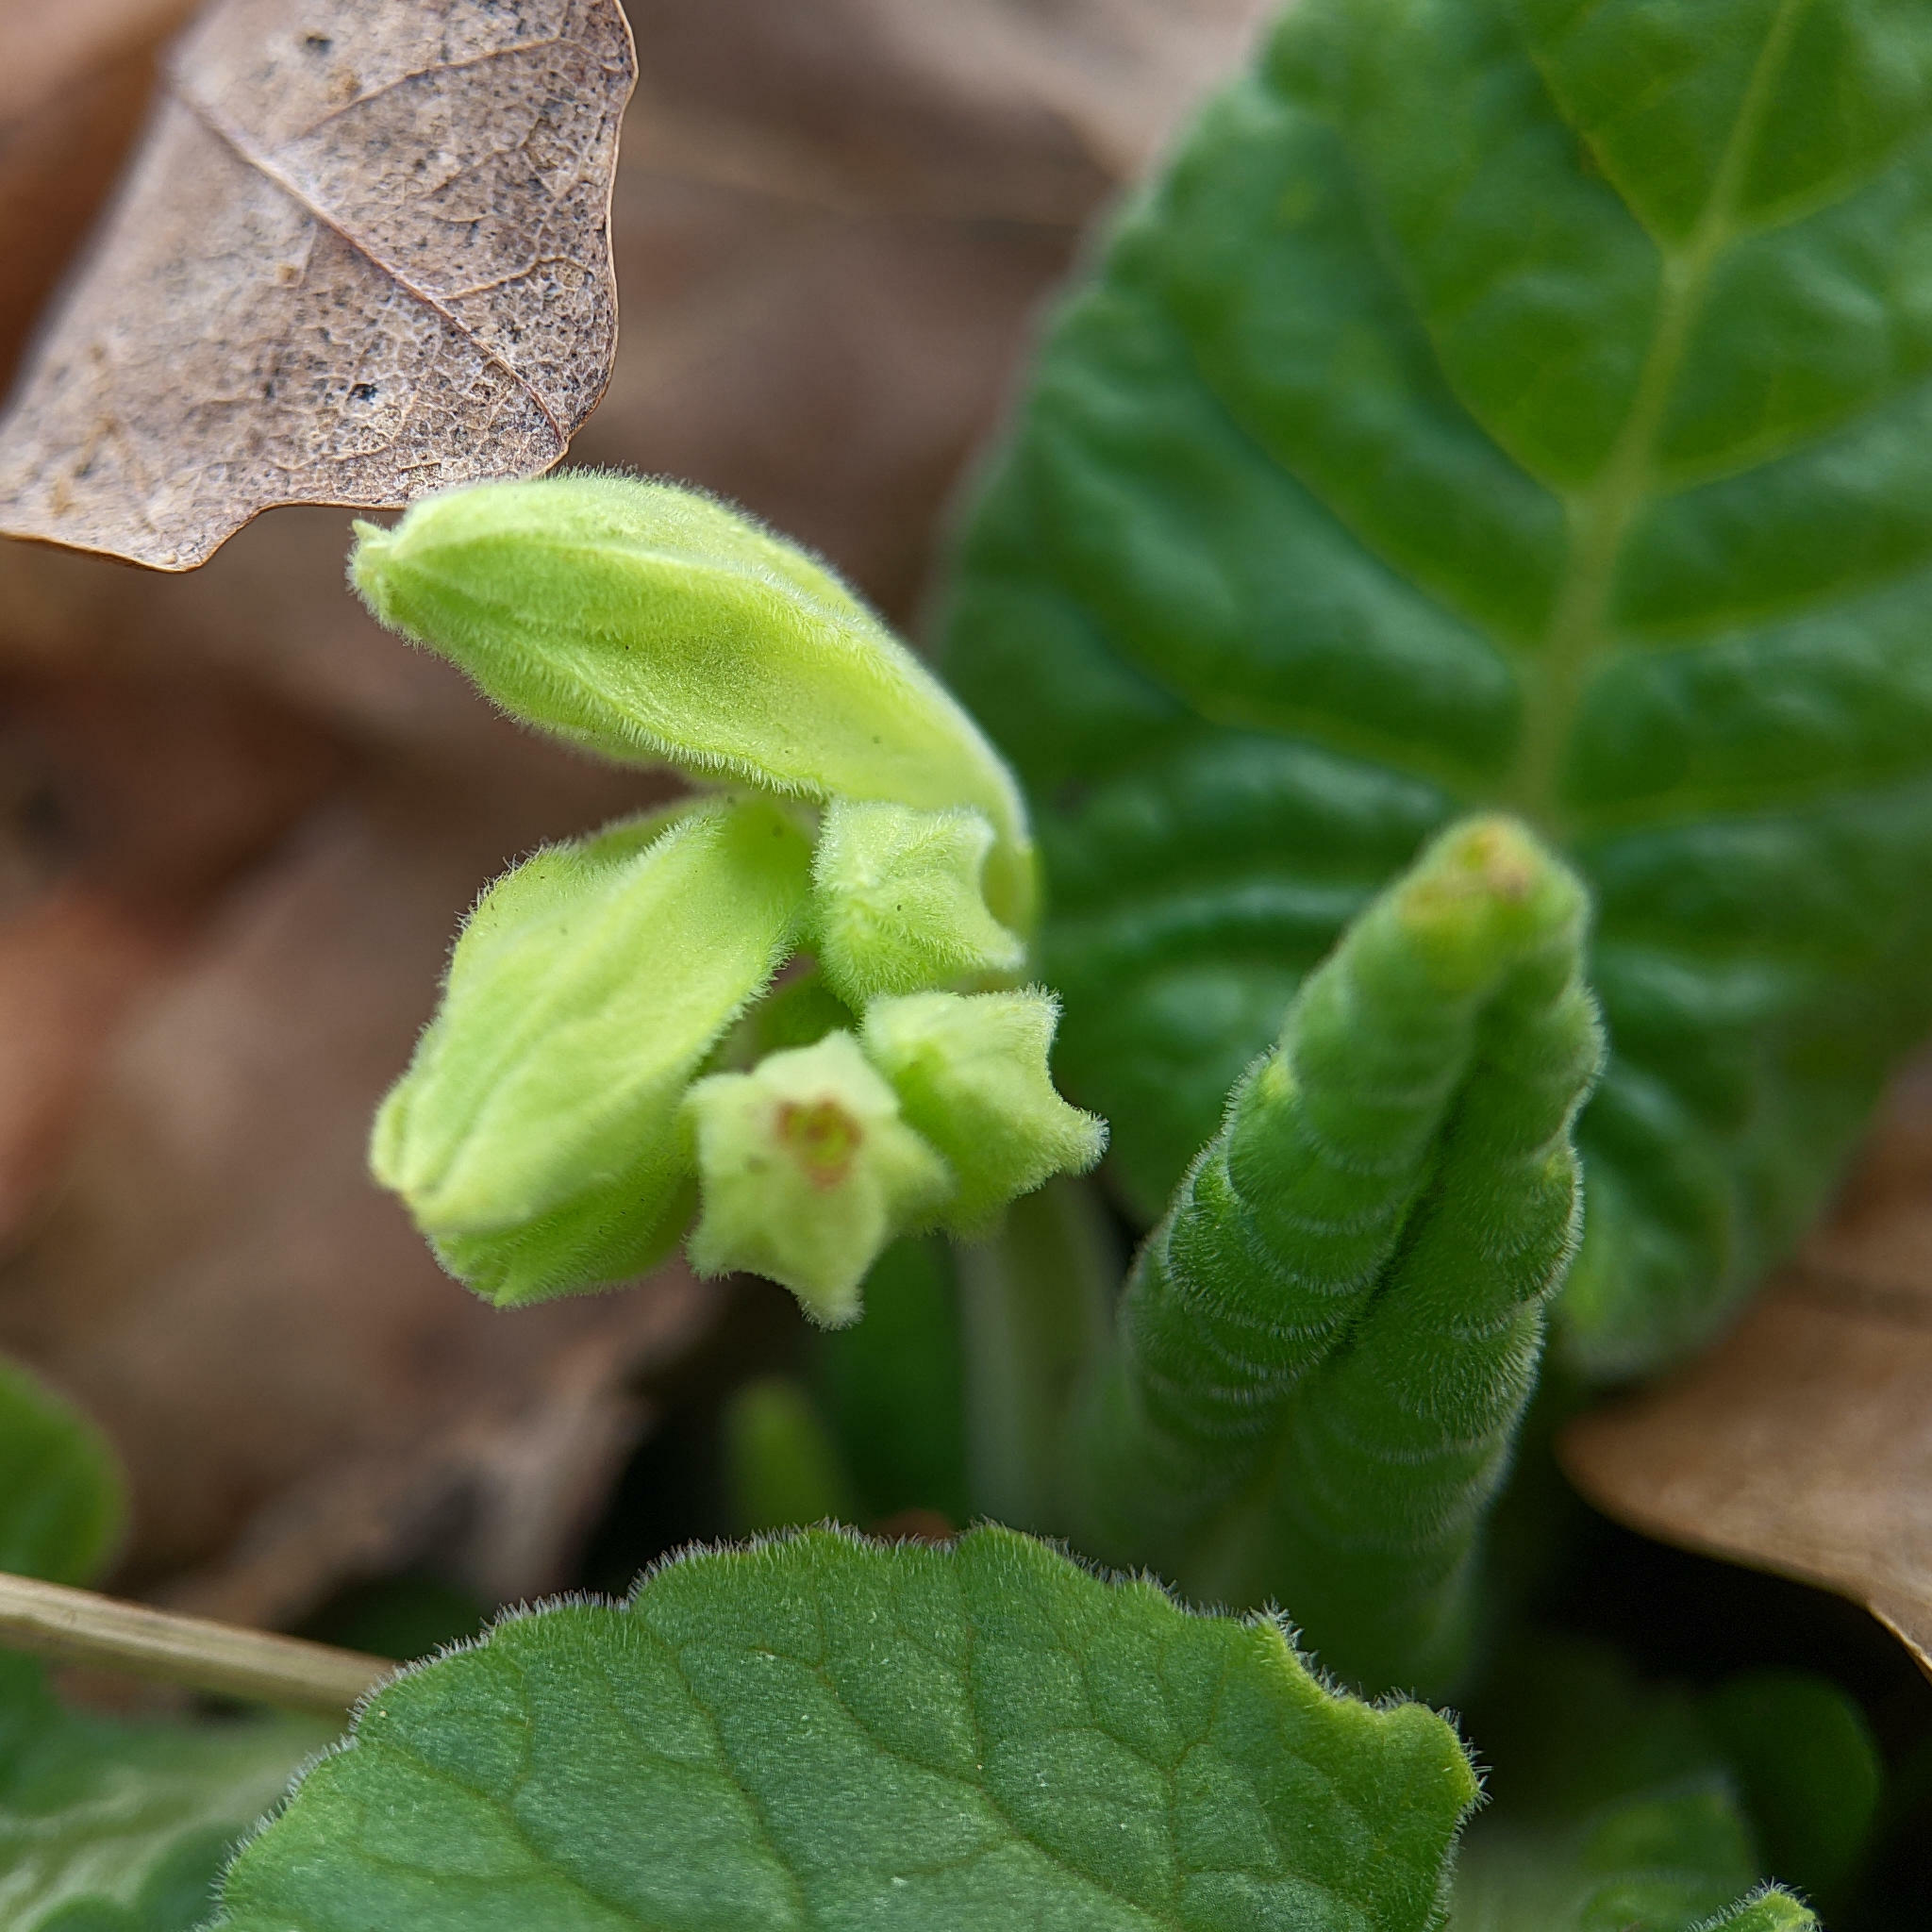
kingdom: Plantae
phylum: Tracheophyta
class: Magnoliopsida
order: Ericales
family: Primulaceae
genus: Primula
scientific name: Primula veris
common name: Cowslip
